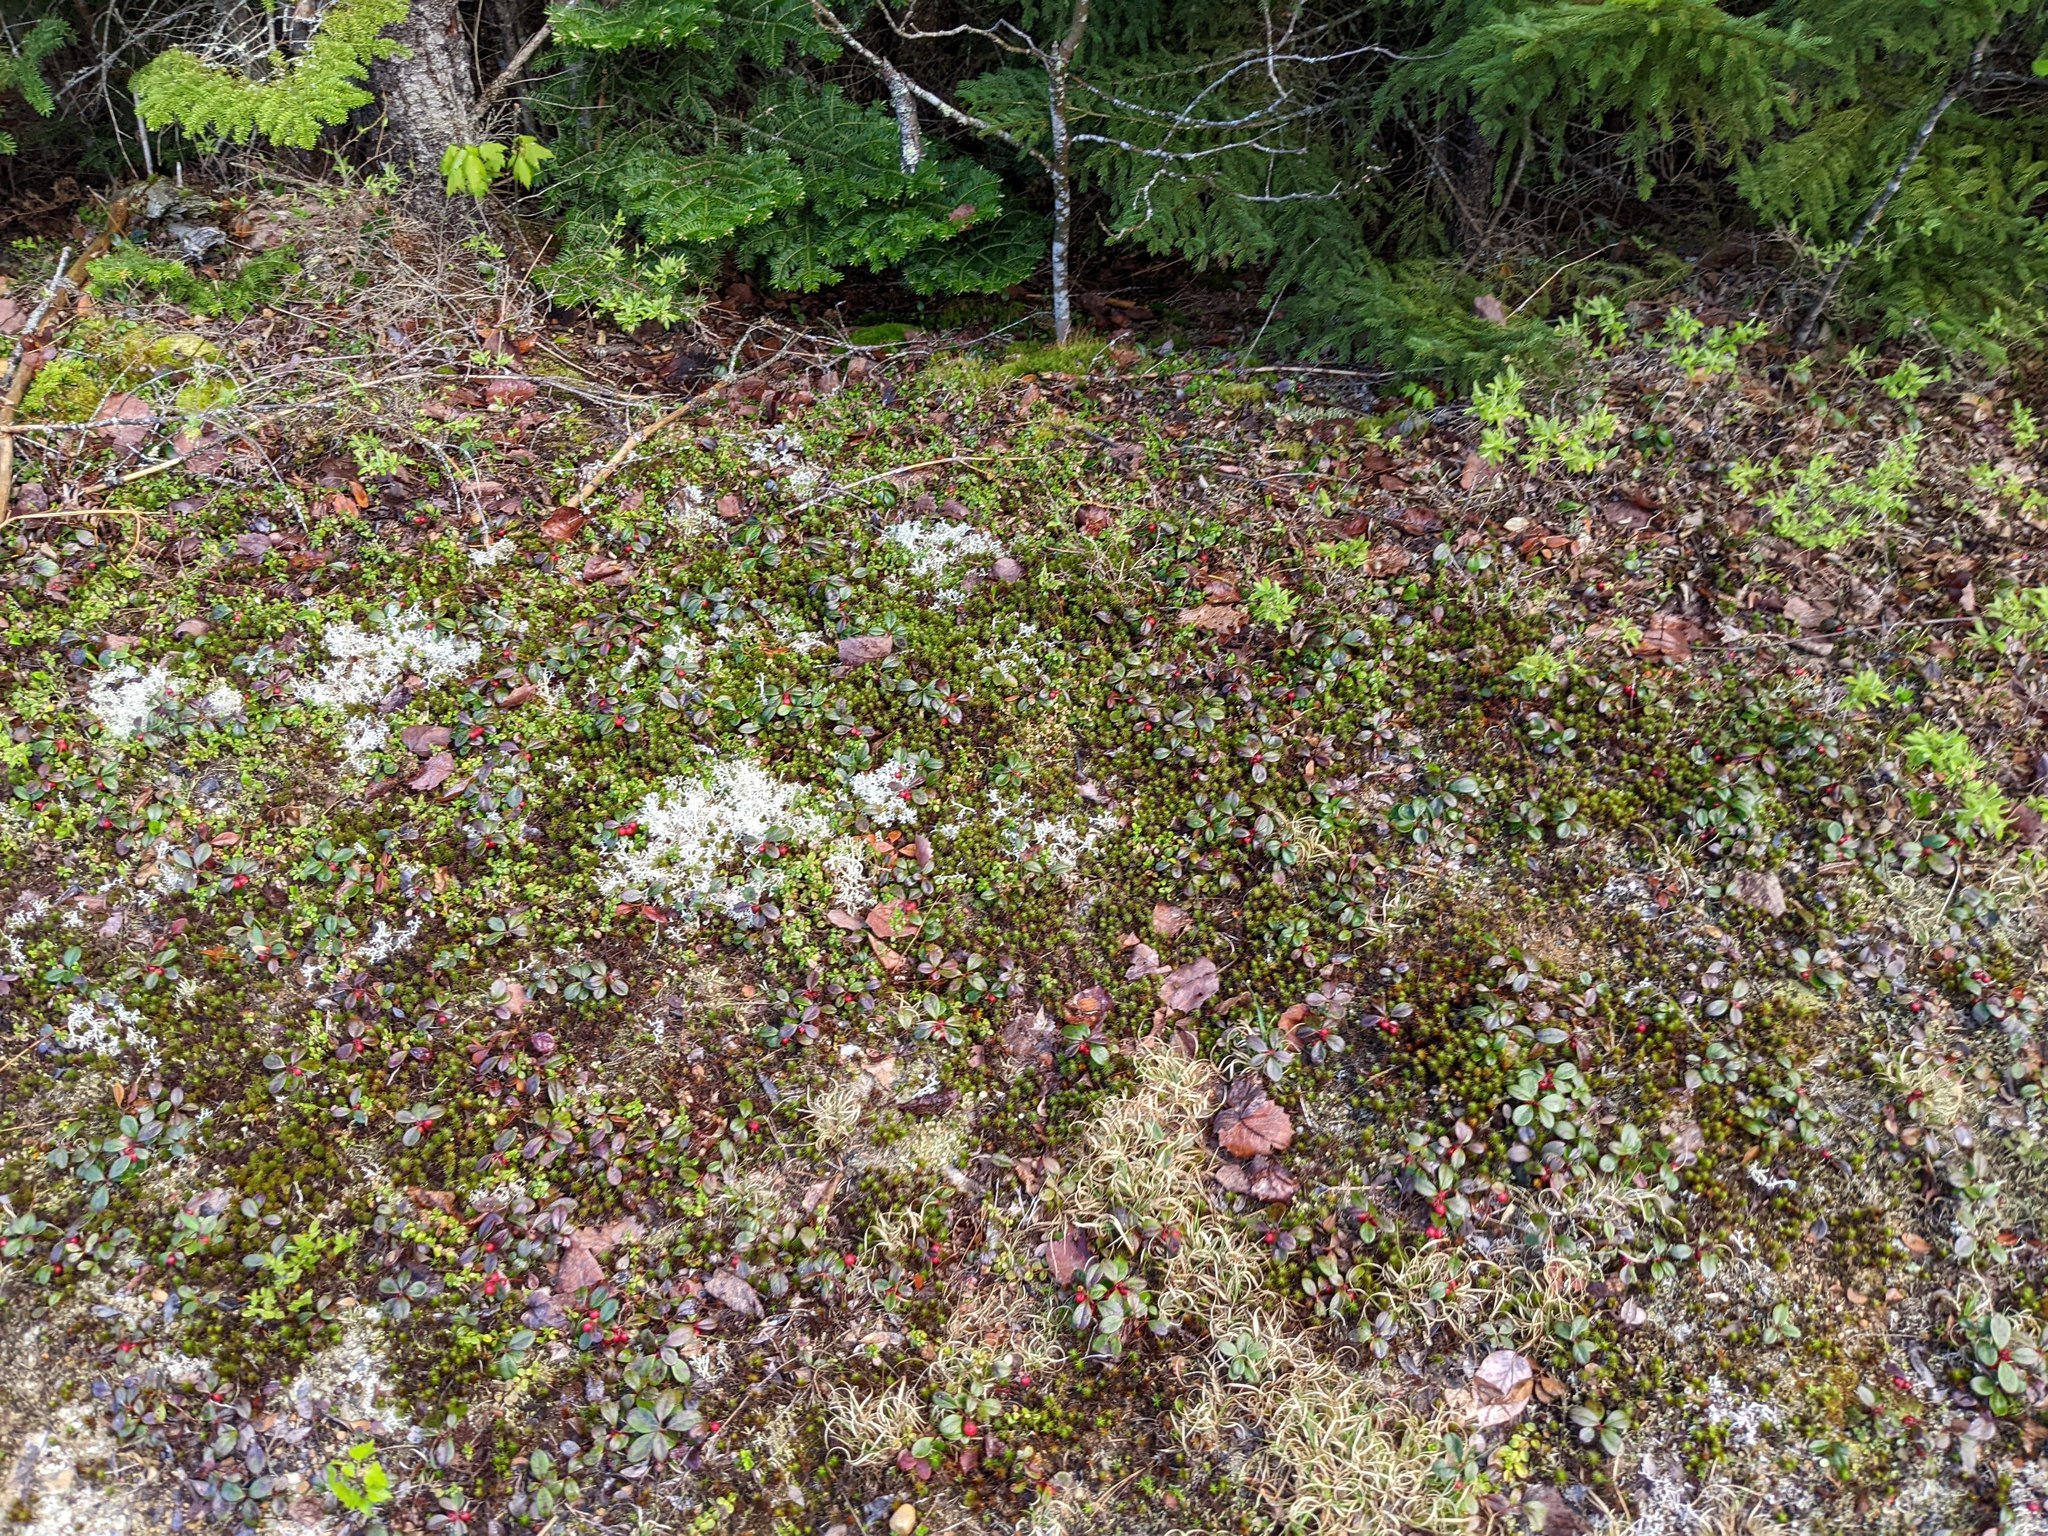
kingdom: Plantae
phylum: Tracheophyta
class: Magnoliopsida
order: Ericales
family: Ericaceae
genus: Gaultheria
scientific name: Gaultheria procumbens
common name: Checkerberry
